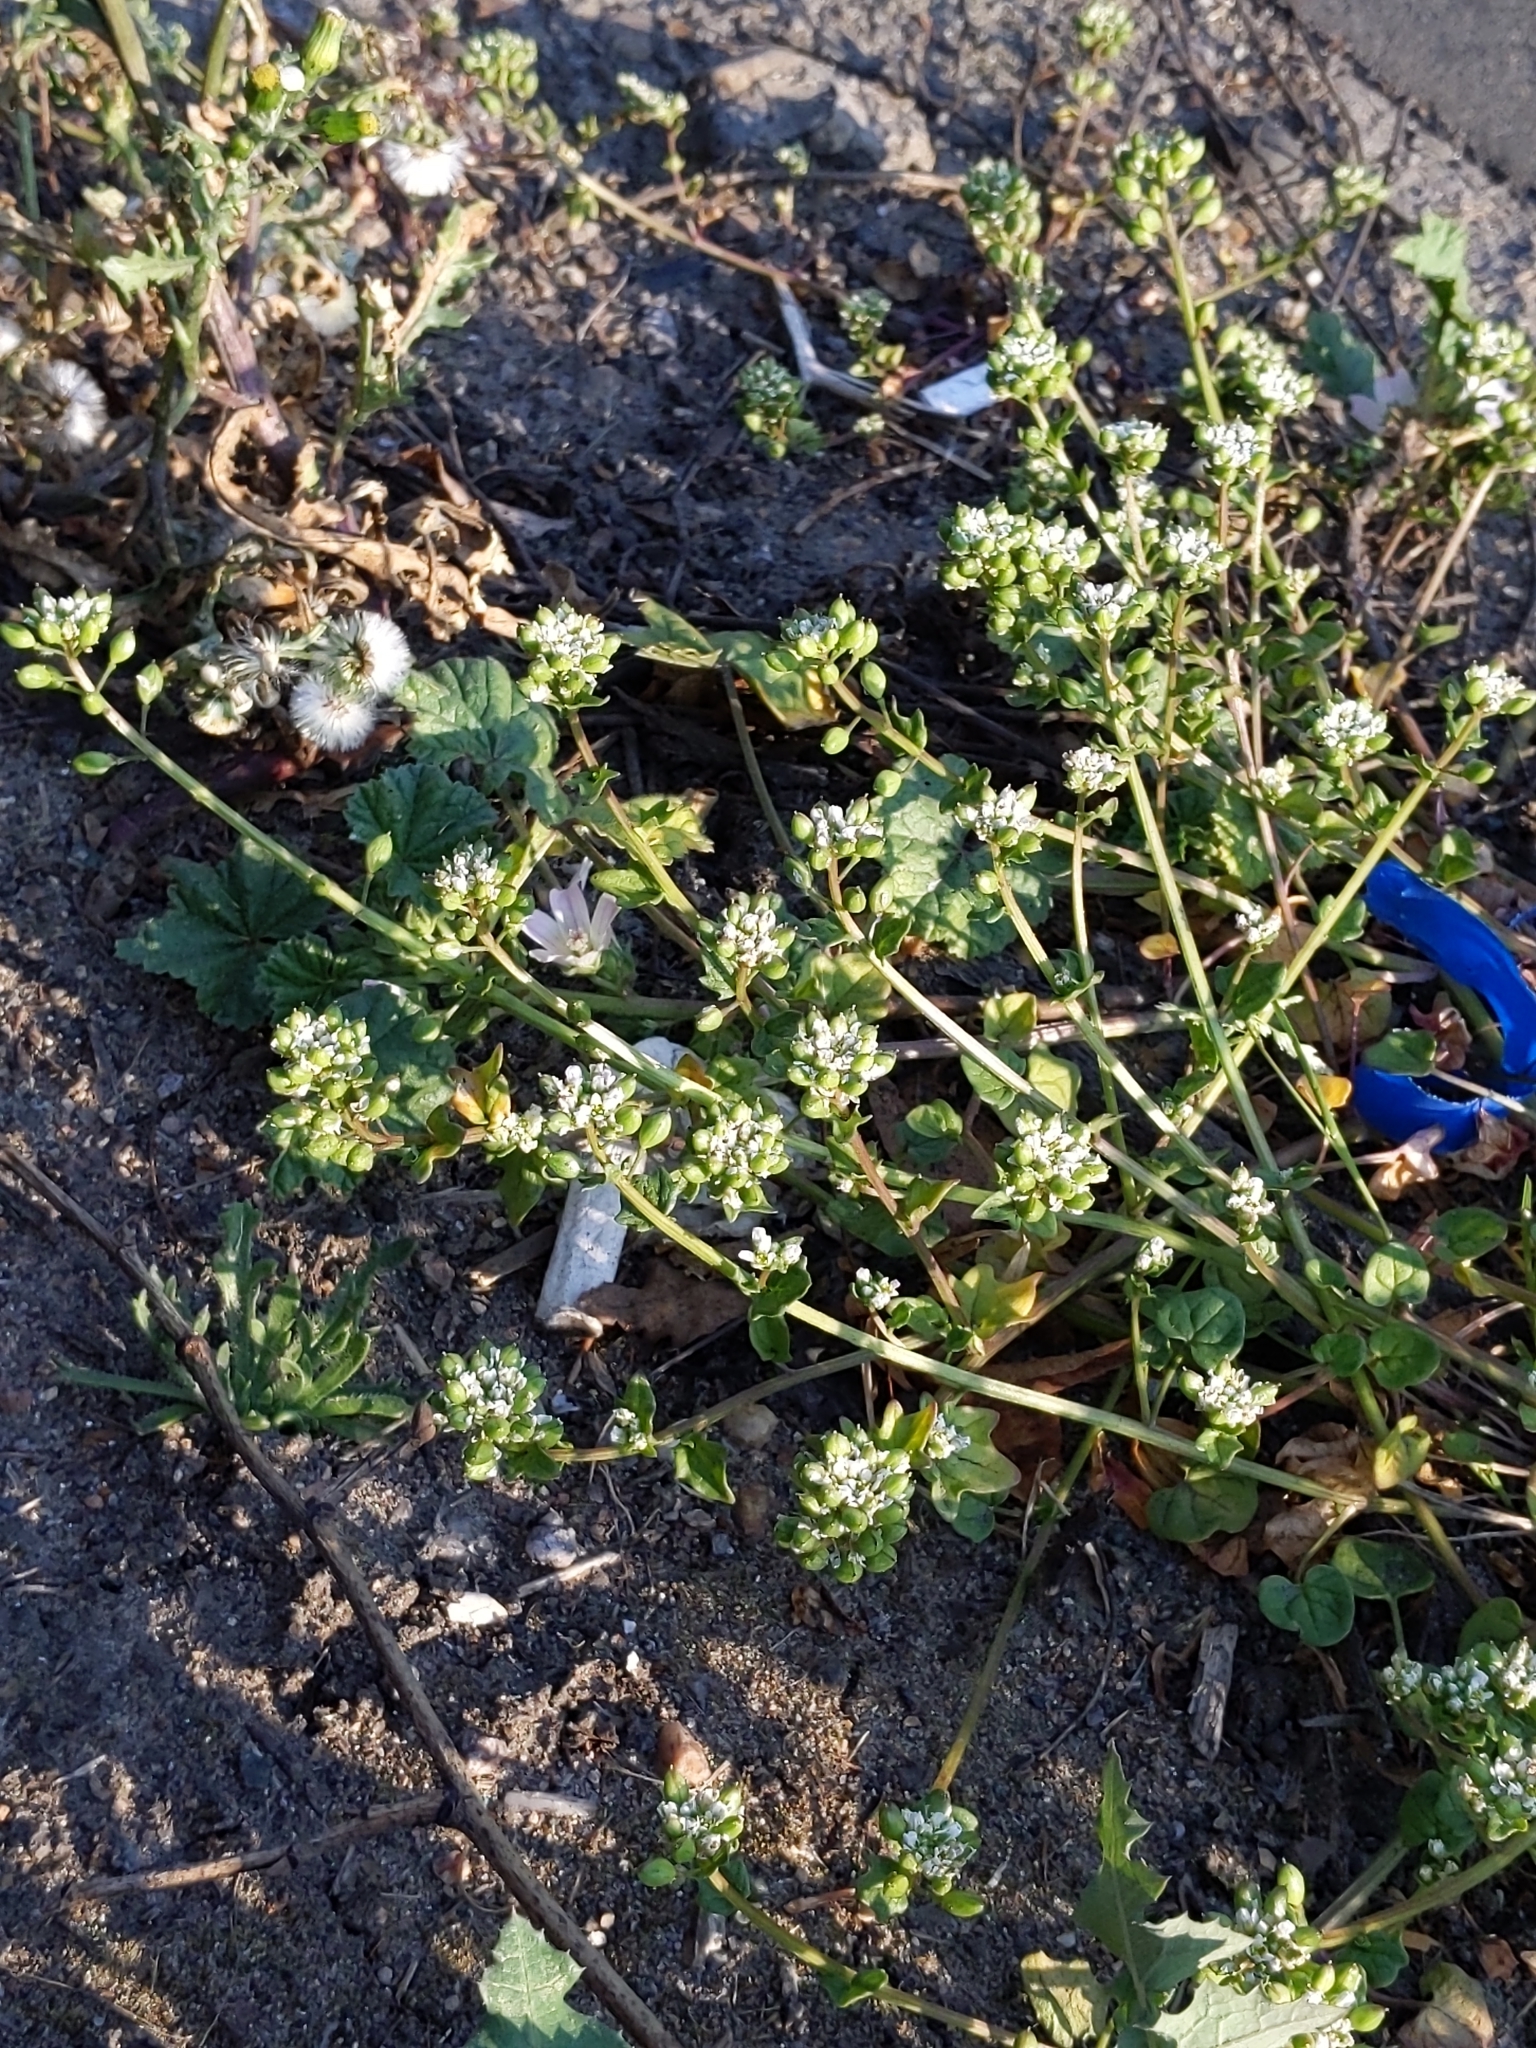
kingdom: Plantae
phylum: Tracheophyta
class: Magnoliopsida
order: Brassicales
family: Brassicaceae
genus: Cochlearia
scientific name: Cochlearia danica
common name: Early scurvygrass
